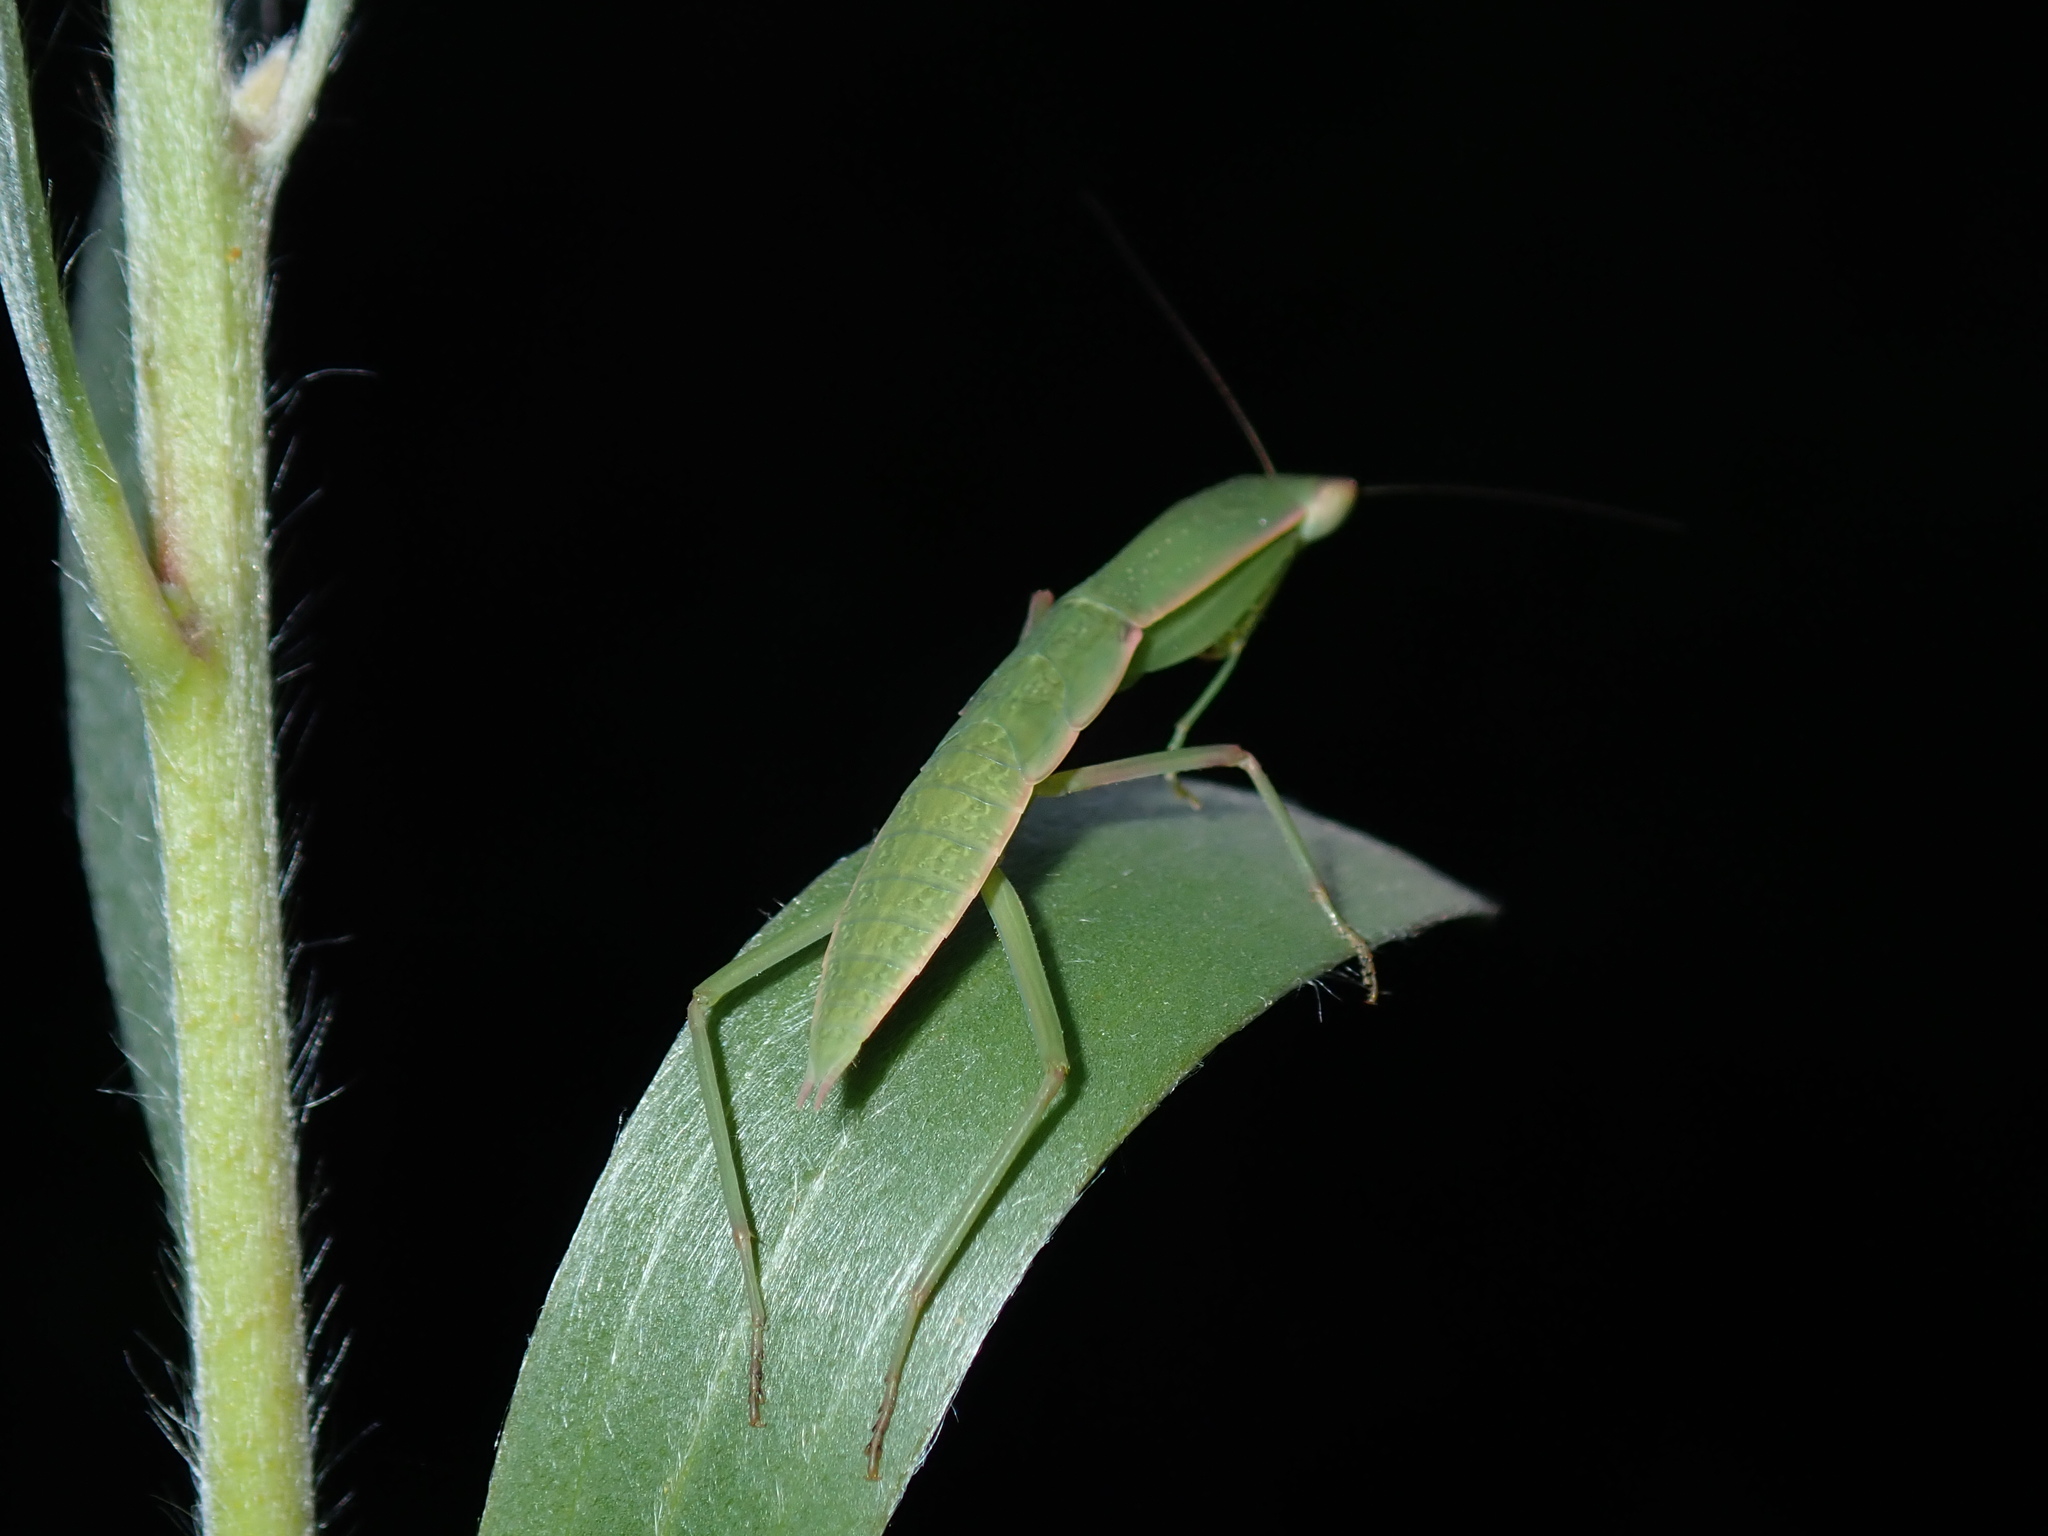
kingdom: Animalia
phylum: Arthropoda
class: Insecta
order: Mantodea
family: Mantidae
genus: Orthodera
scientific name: Orthodera ministralis
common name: Mantis
